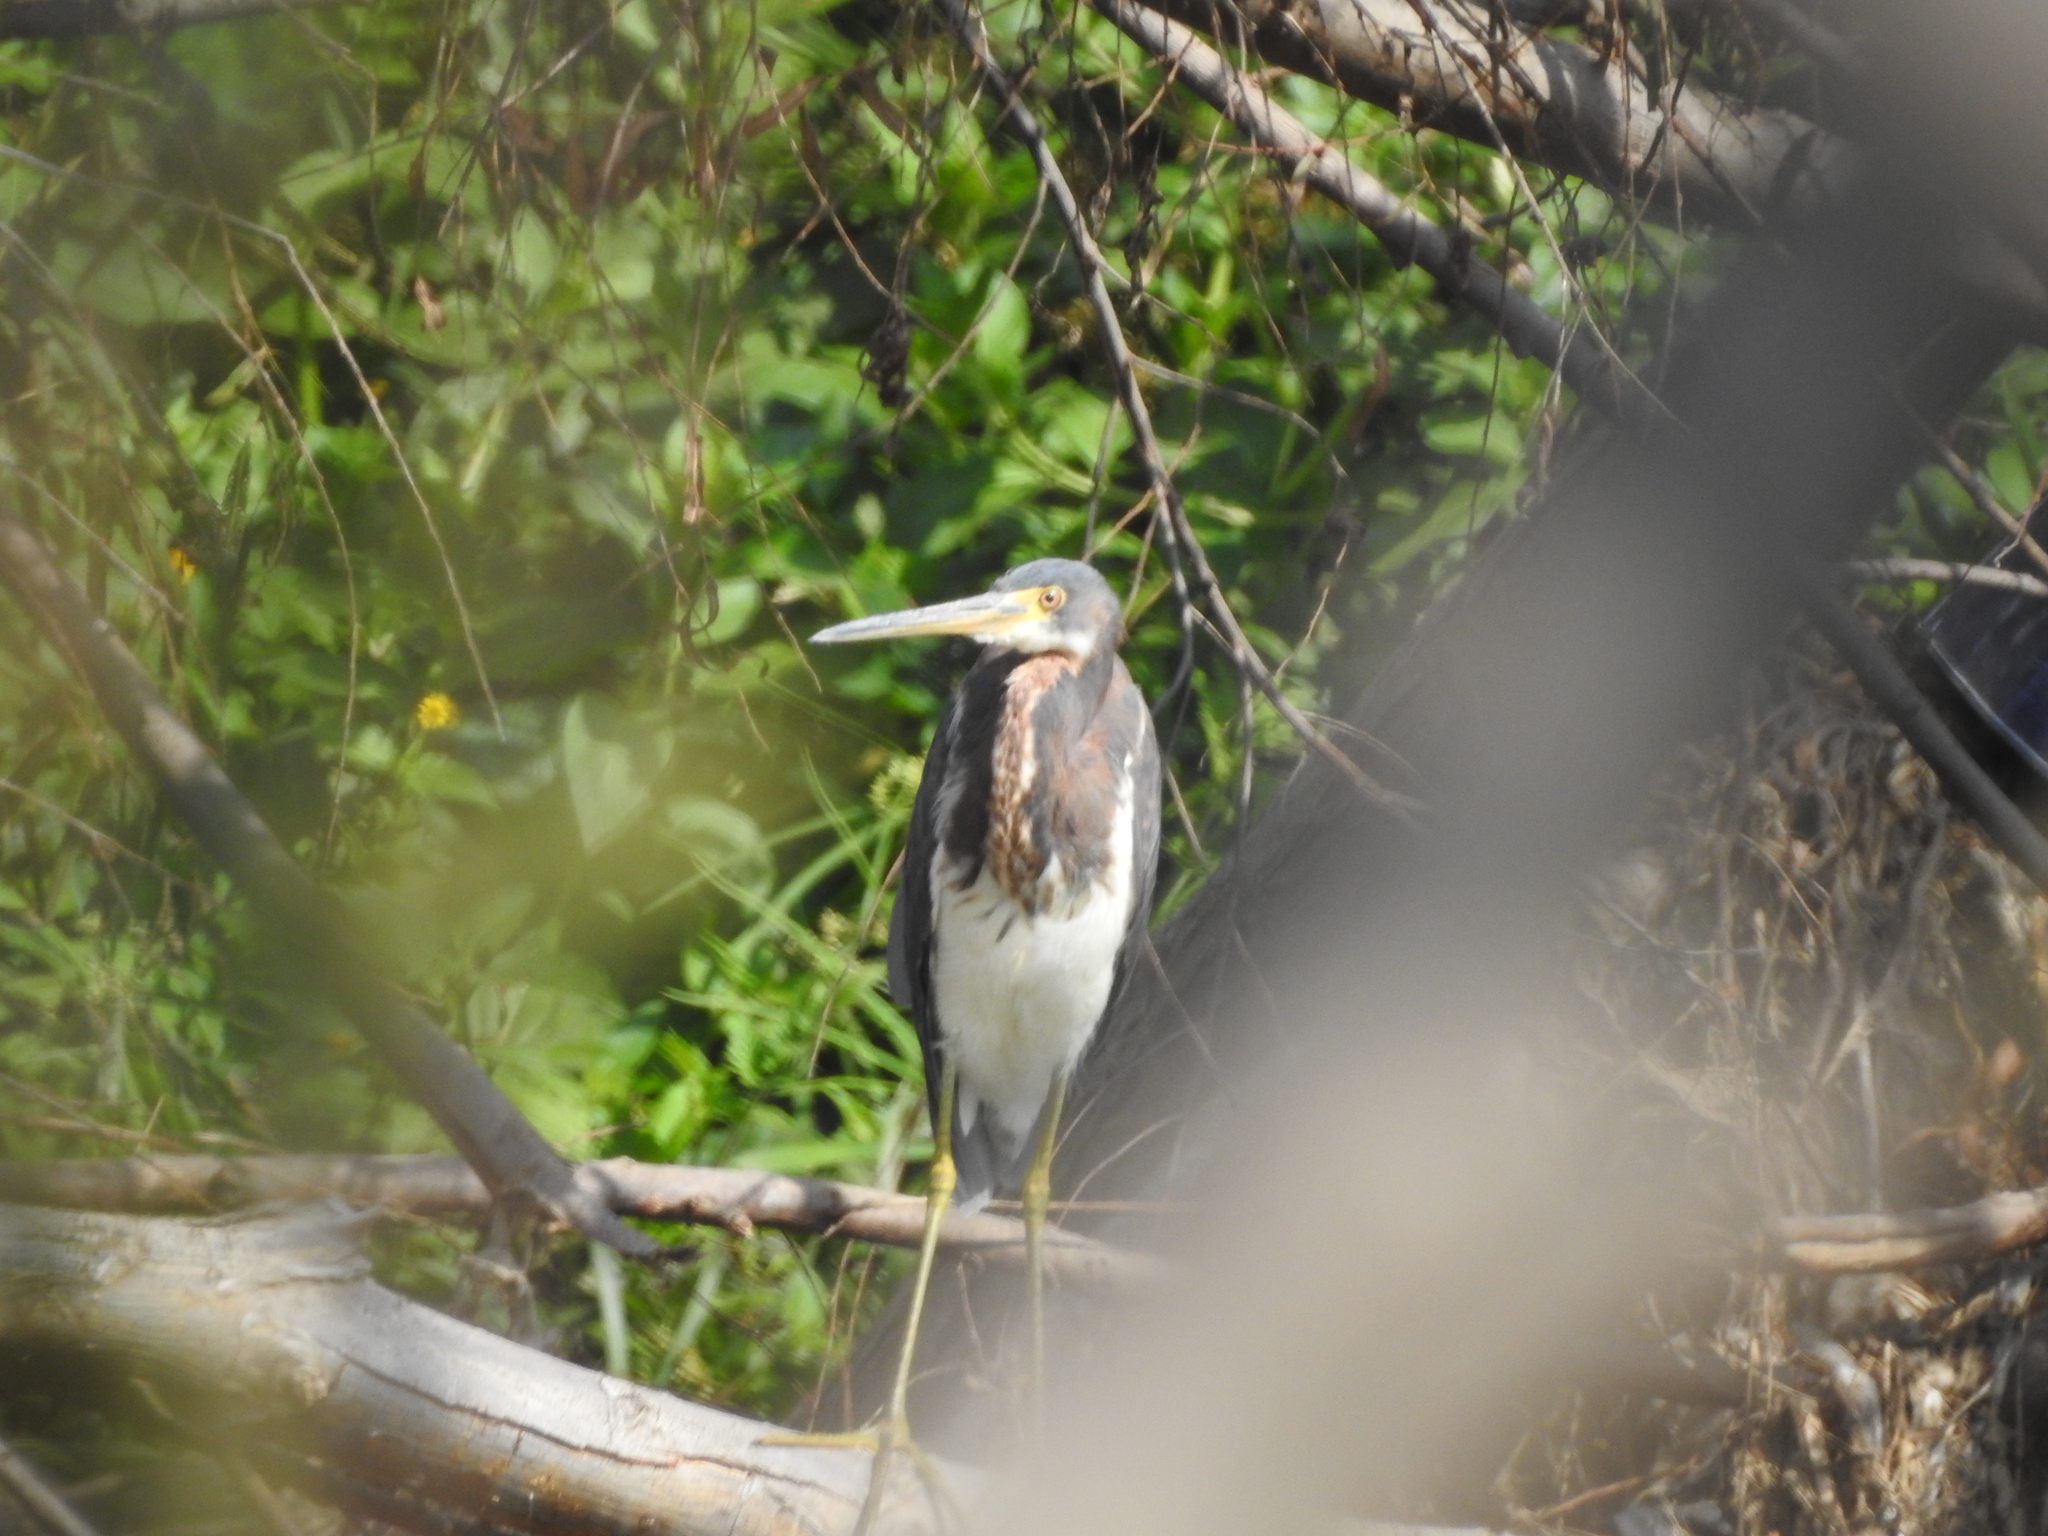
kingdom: Animalia
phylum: Chordata
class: Aves
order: Pelecaniformes
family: Ardeidae
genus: Egretta
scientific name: Egretta tricolor
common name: Tricolored heron
